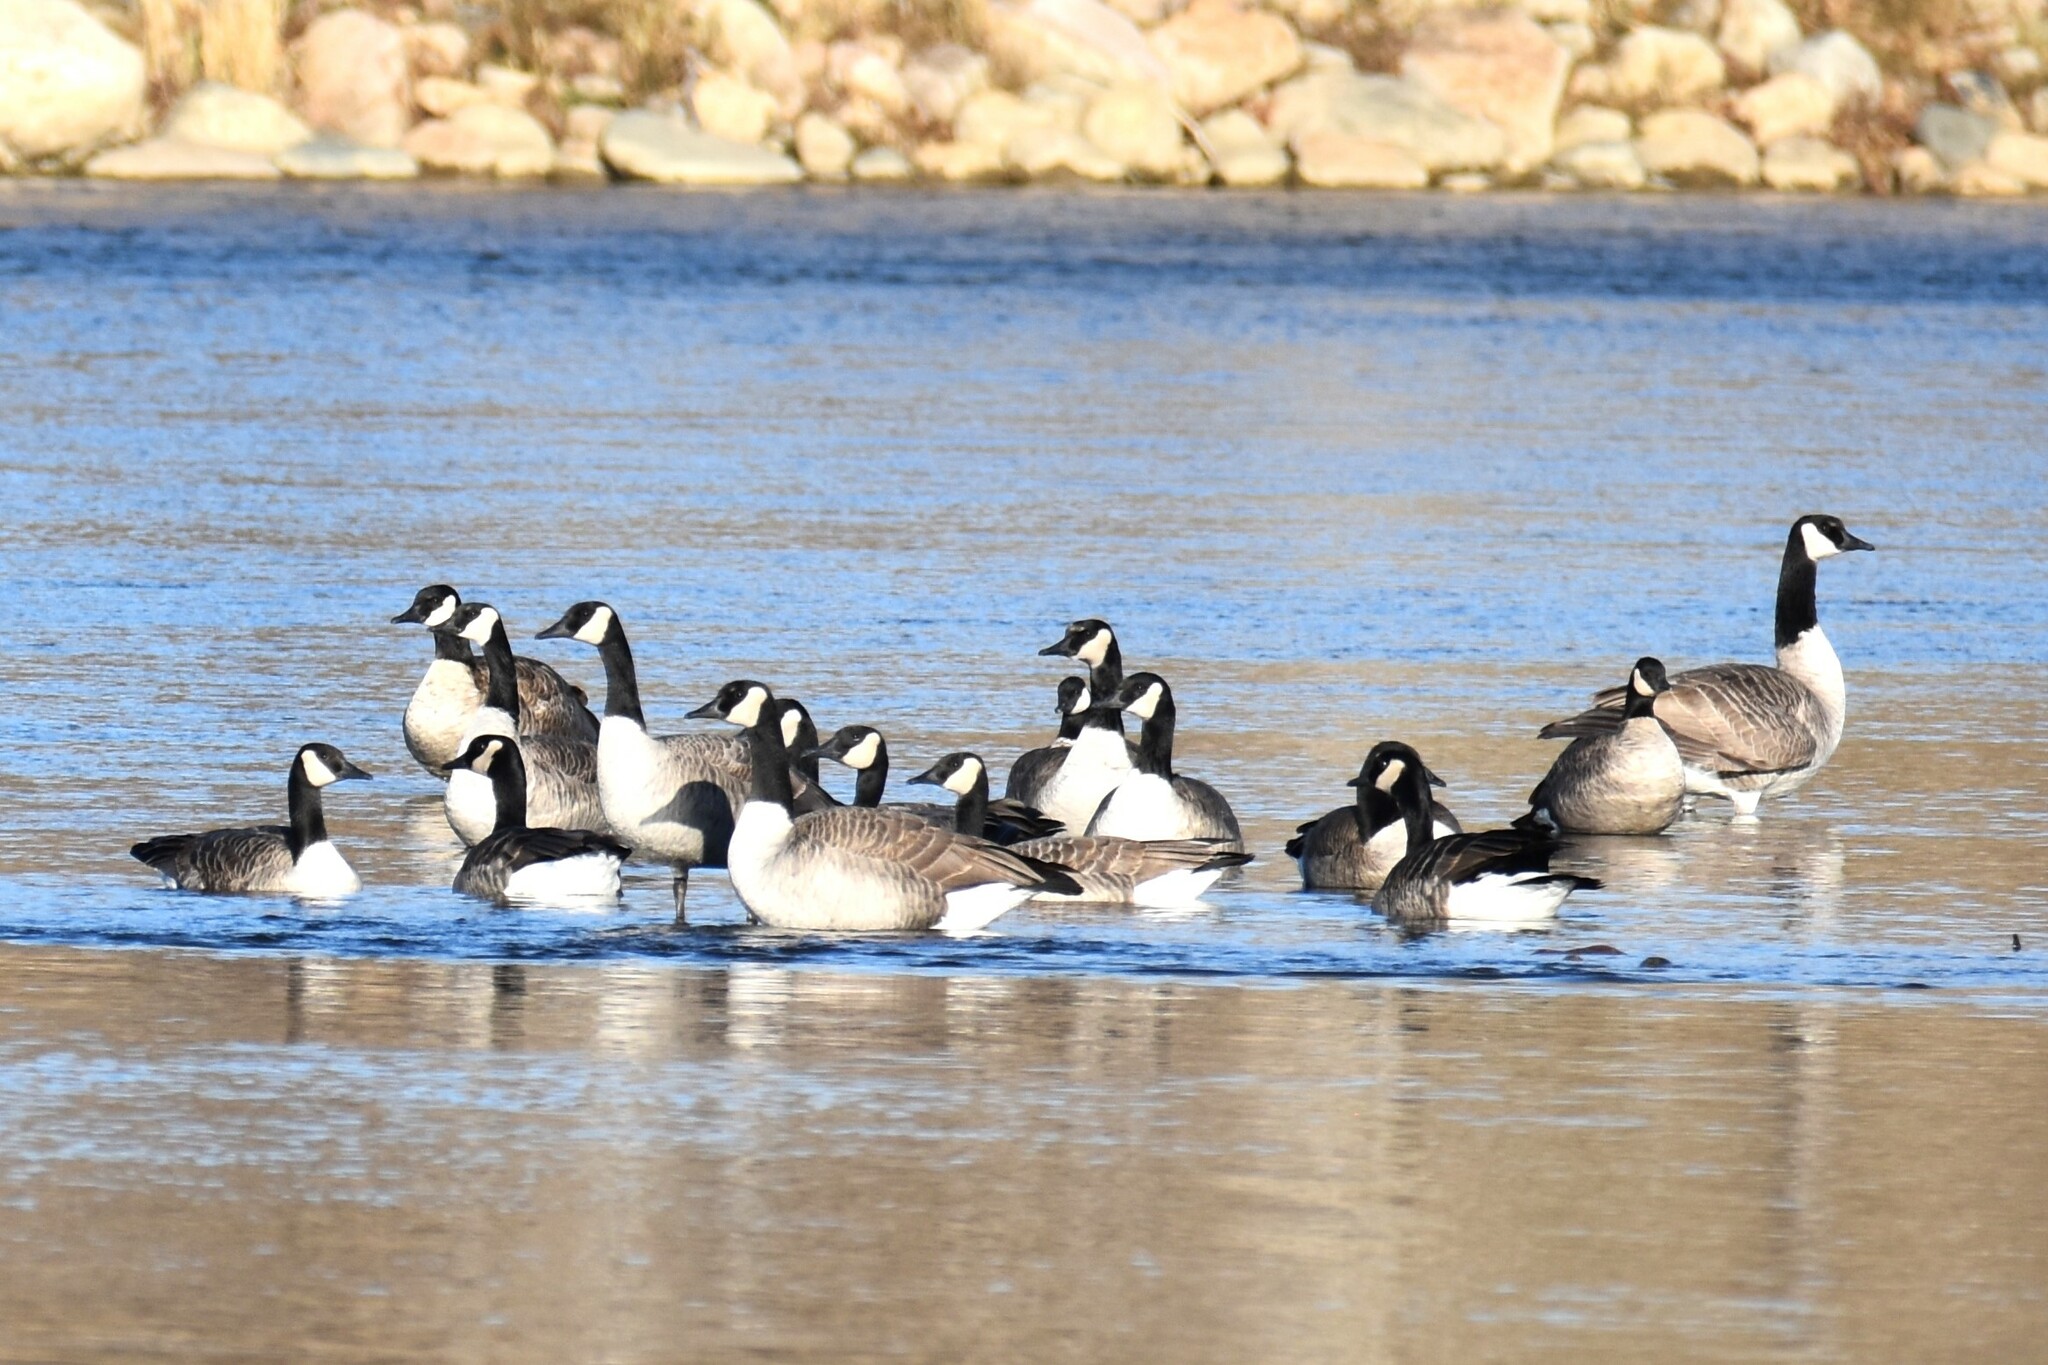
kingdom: Animalia
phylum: Chordata
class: Aves
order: Anseriformes
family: Anatidae
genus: Branta
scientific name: Branta canadensis
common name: Canada goose
